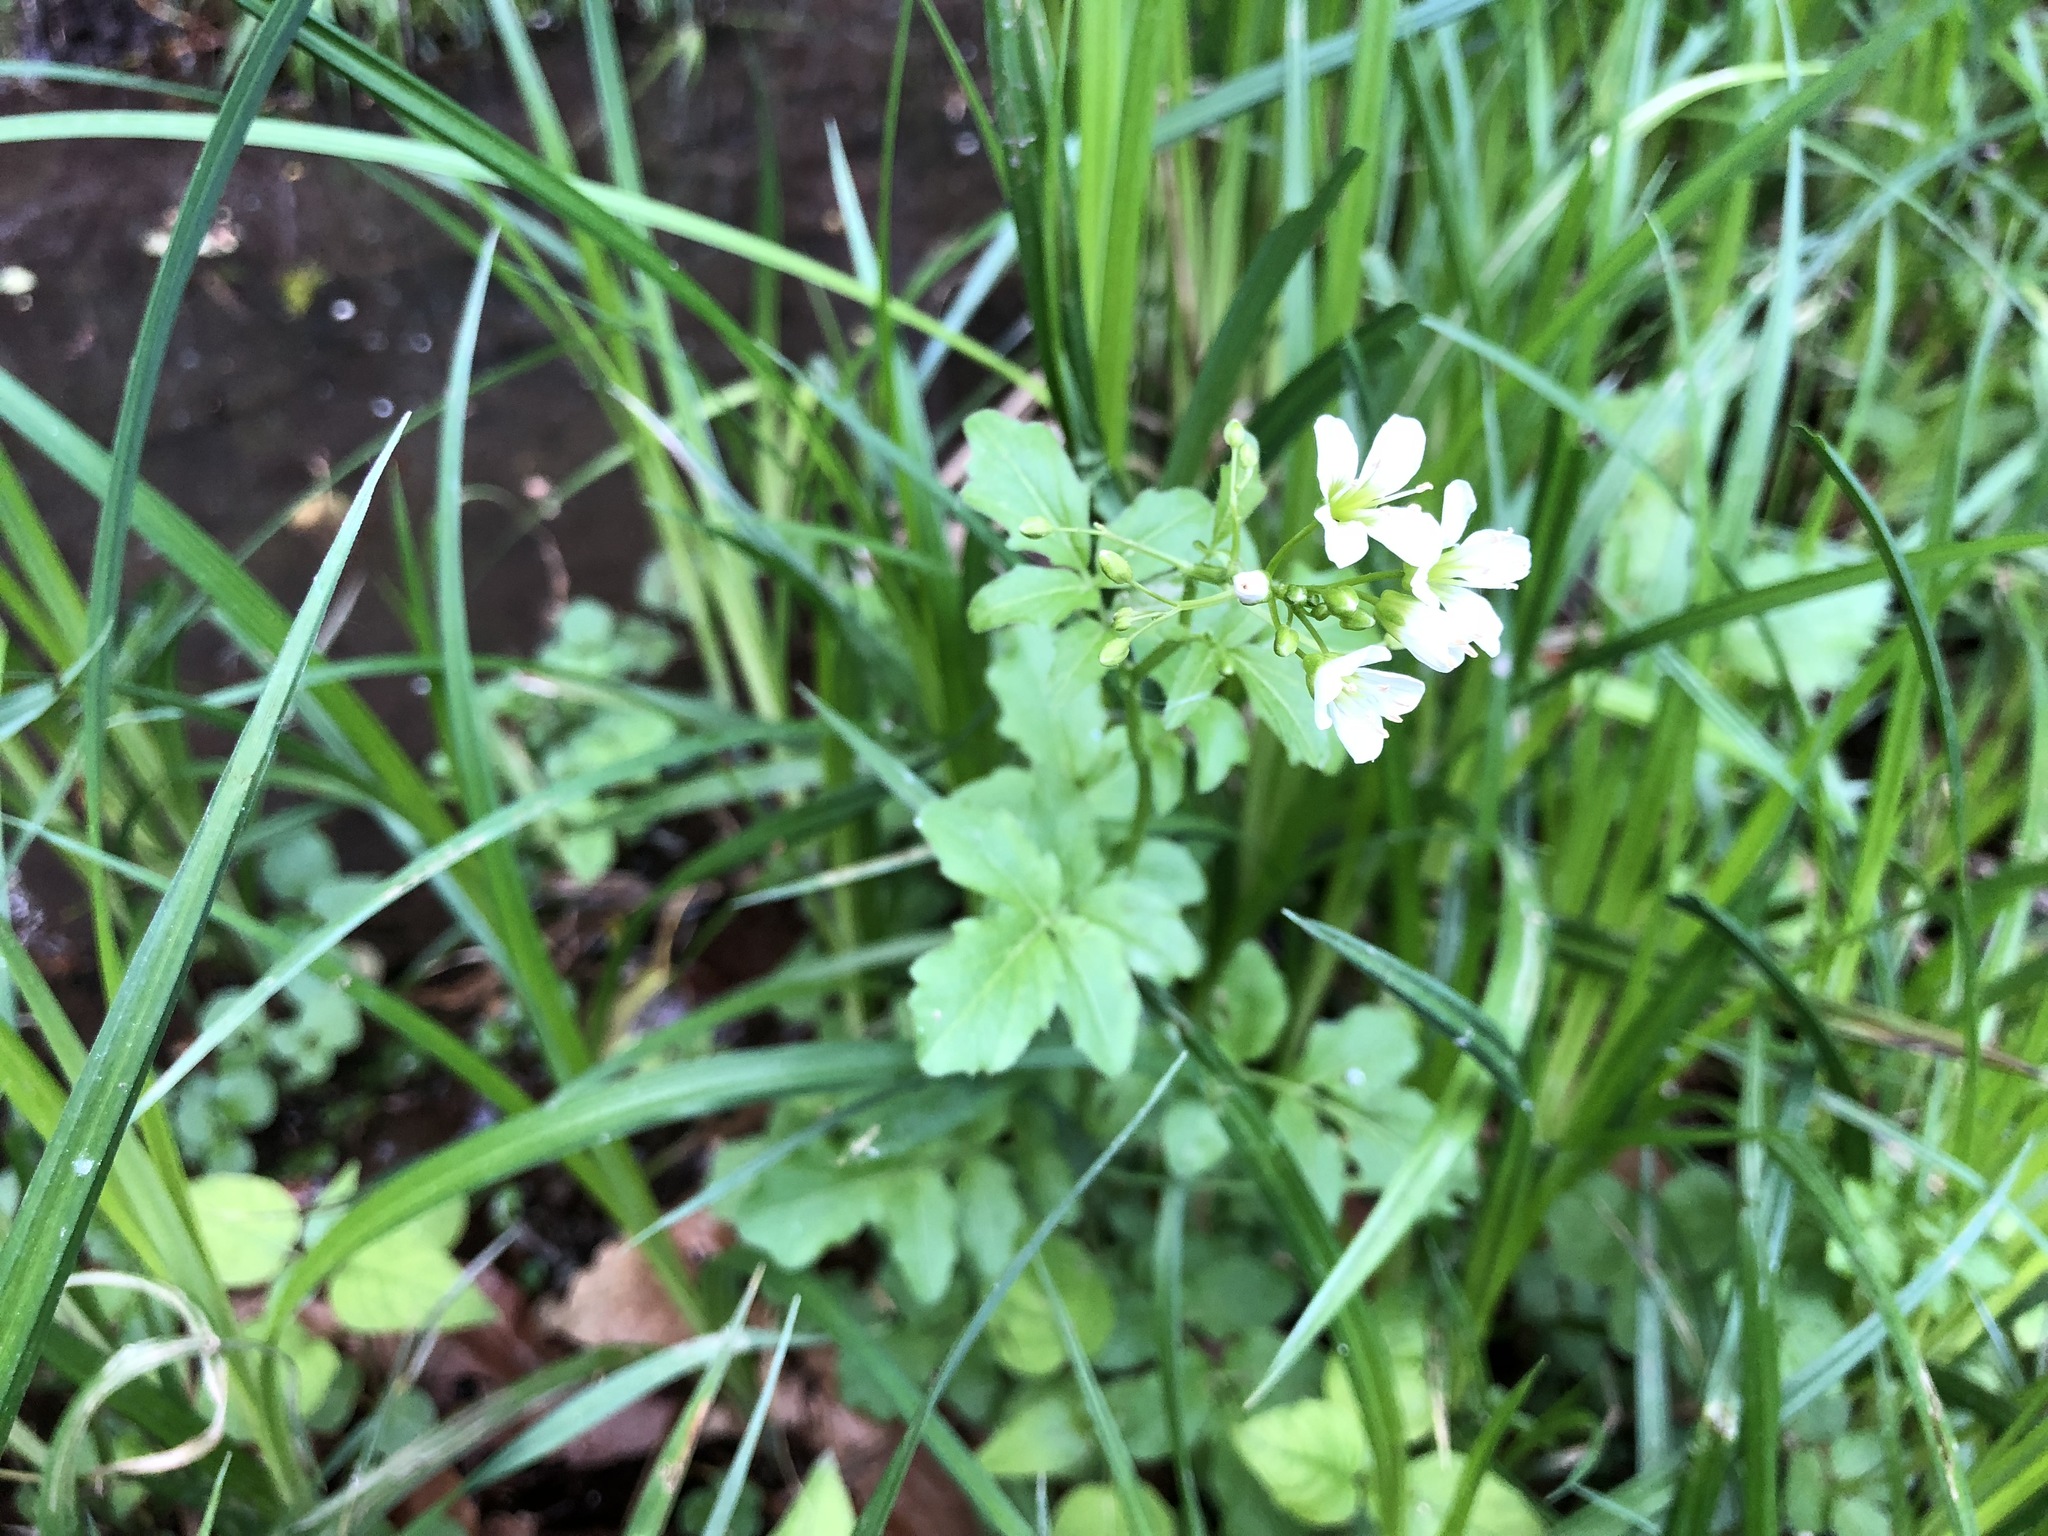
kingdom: Plantae
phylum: Tracheophyta
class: Magnoliopsida
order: Brassicales
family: Brassicaceae
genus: Cardamine
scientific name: Cardamine amara
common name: Large bitter-cress
